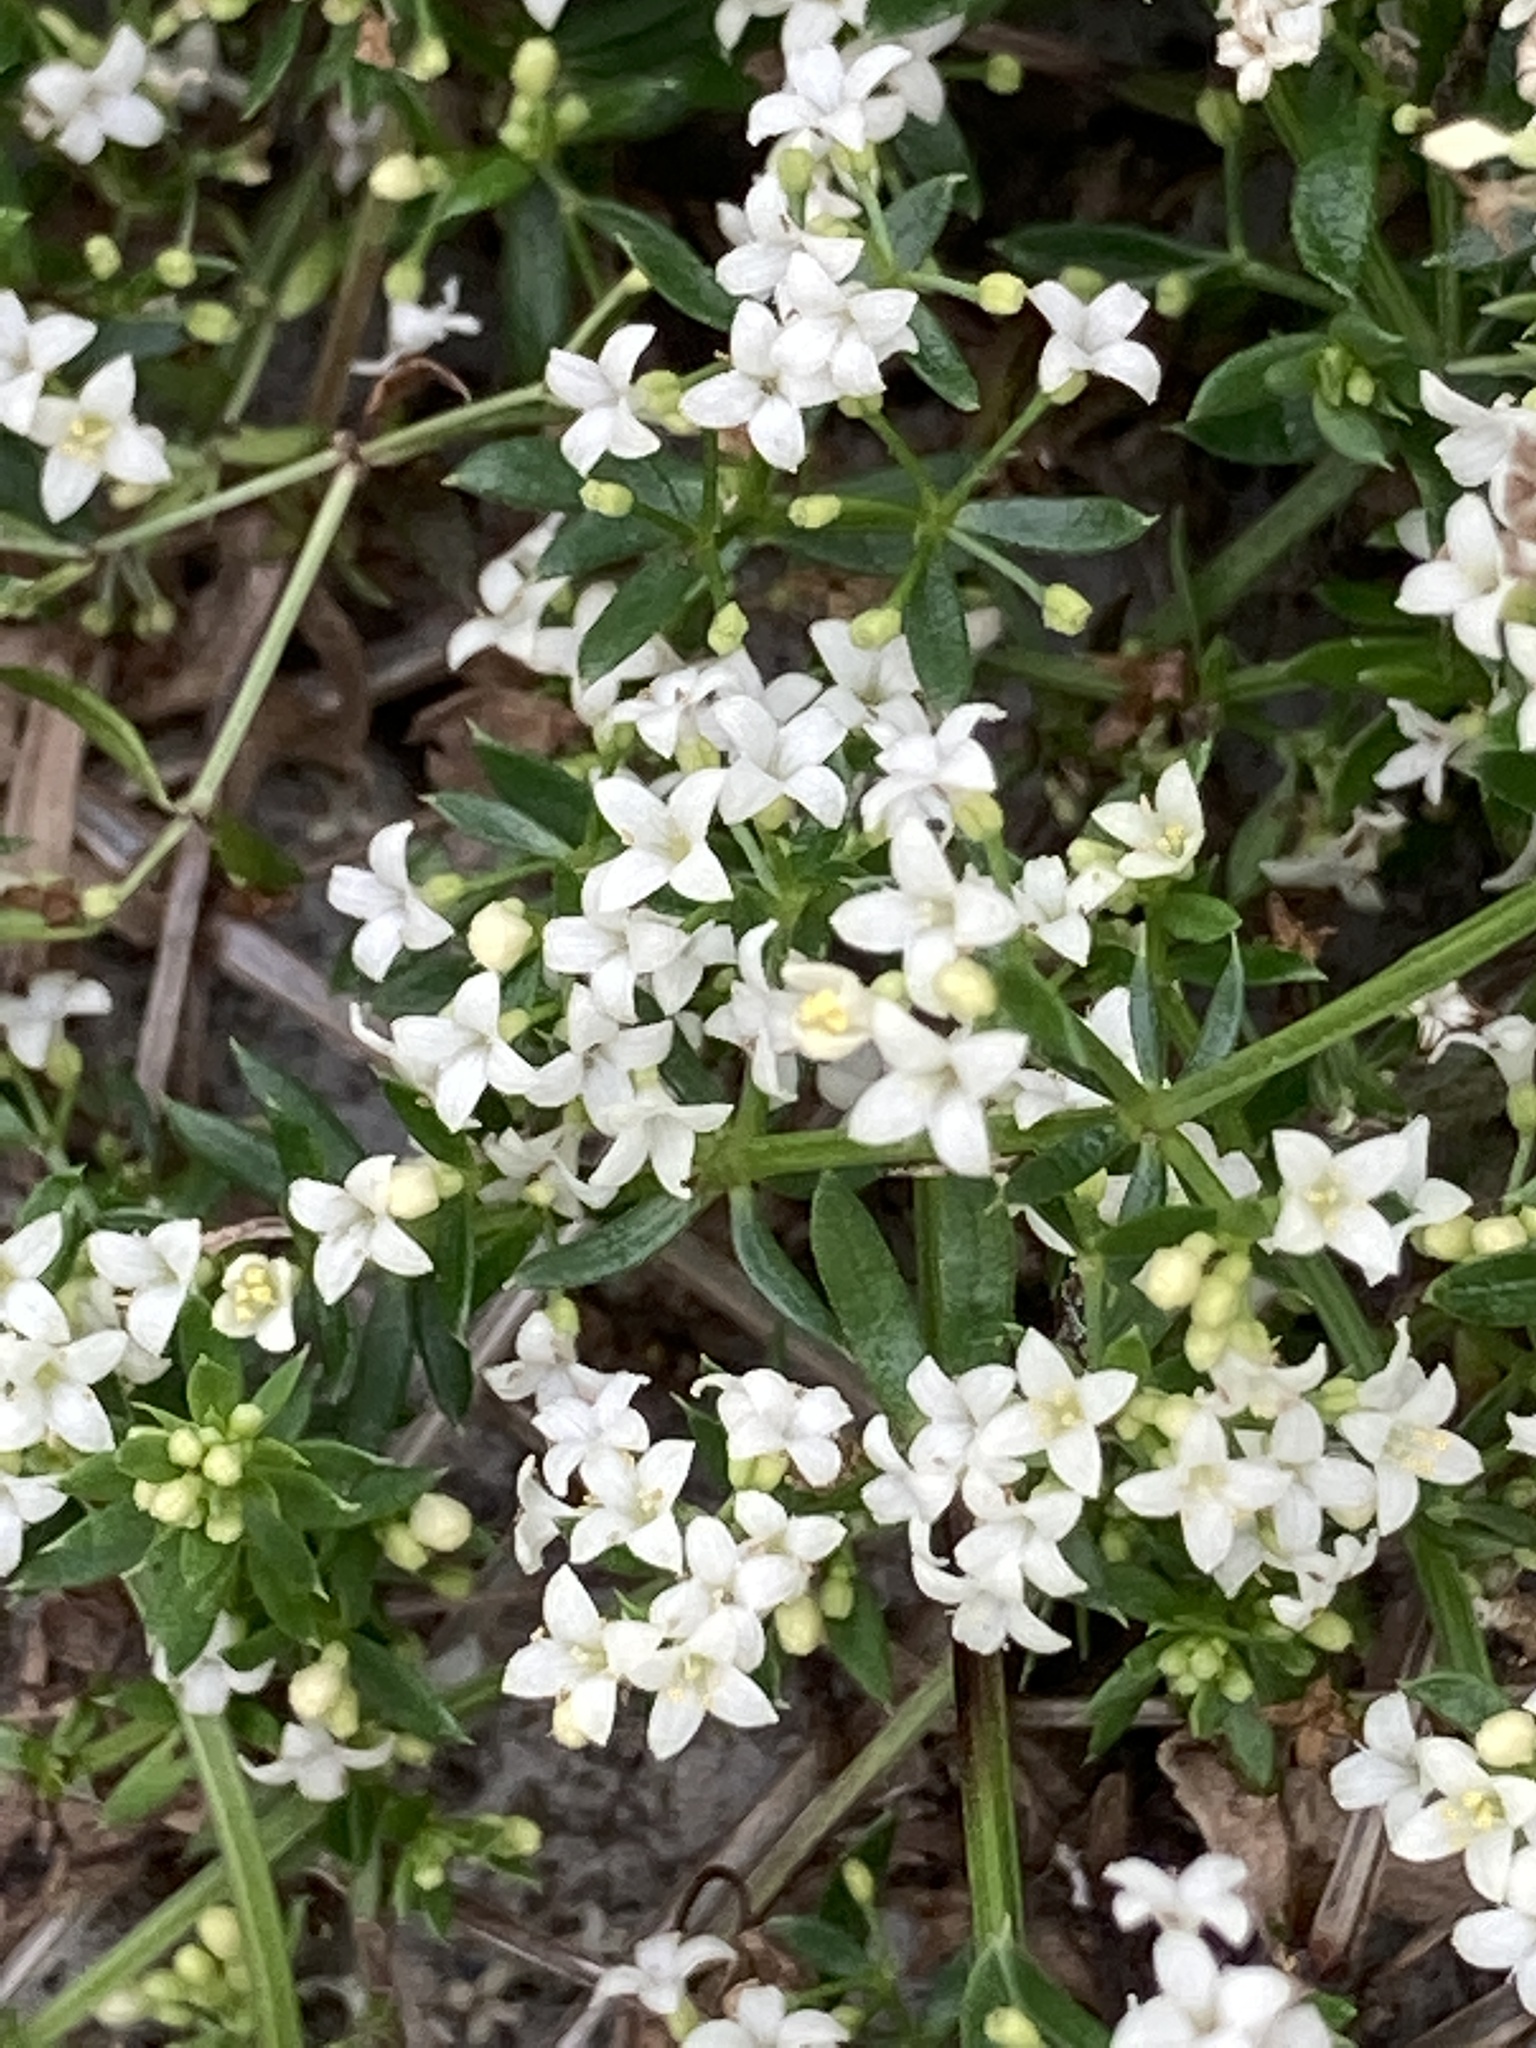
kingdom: Plantae
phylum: Tracheophyta
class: Magnoliopsida
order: Gentianales
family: Rubiaceae
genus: Galium
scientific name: Galium humifusum
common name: Spreading bedstraw
